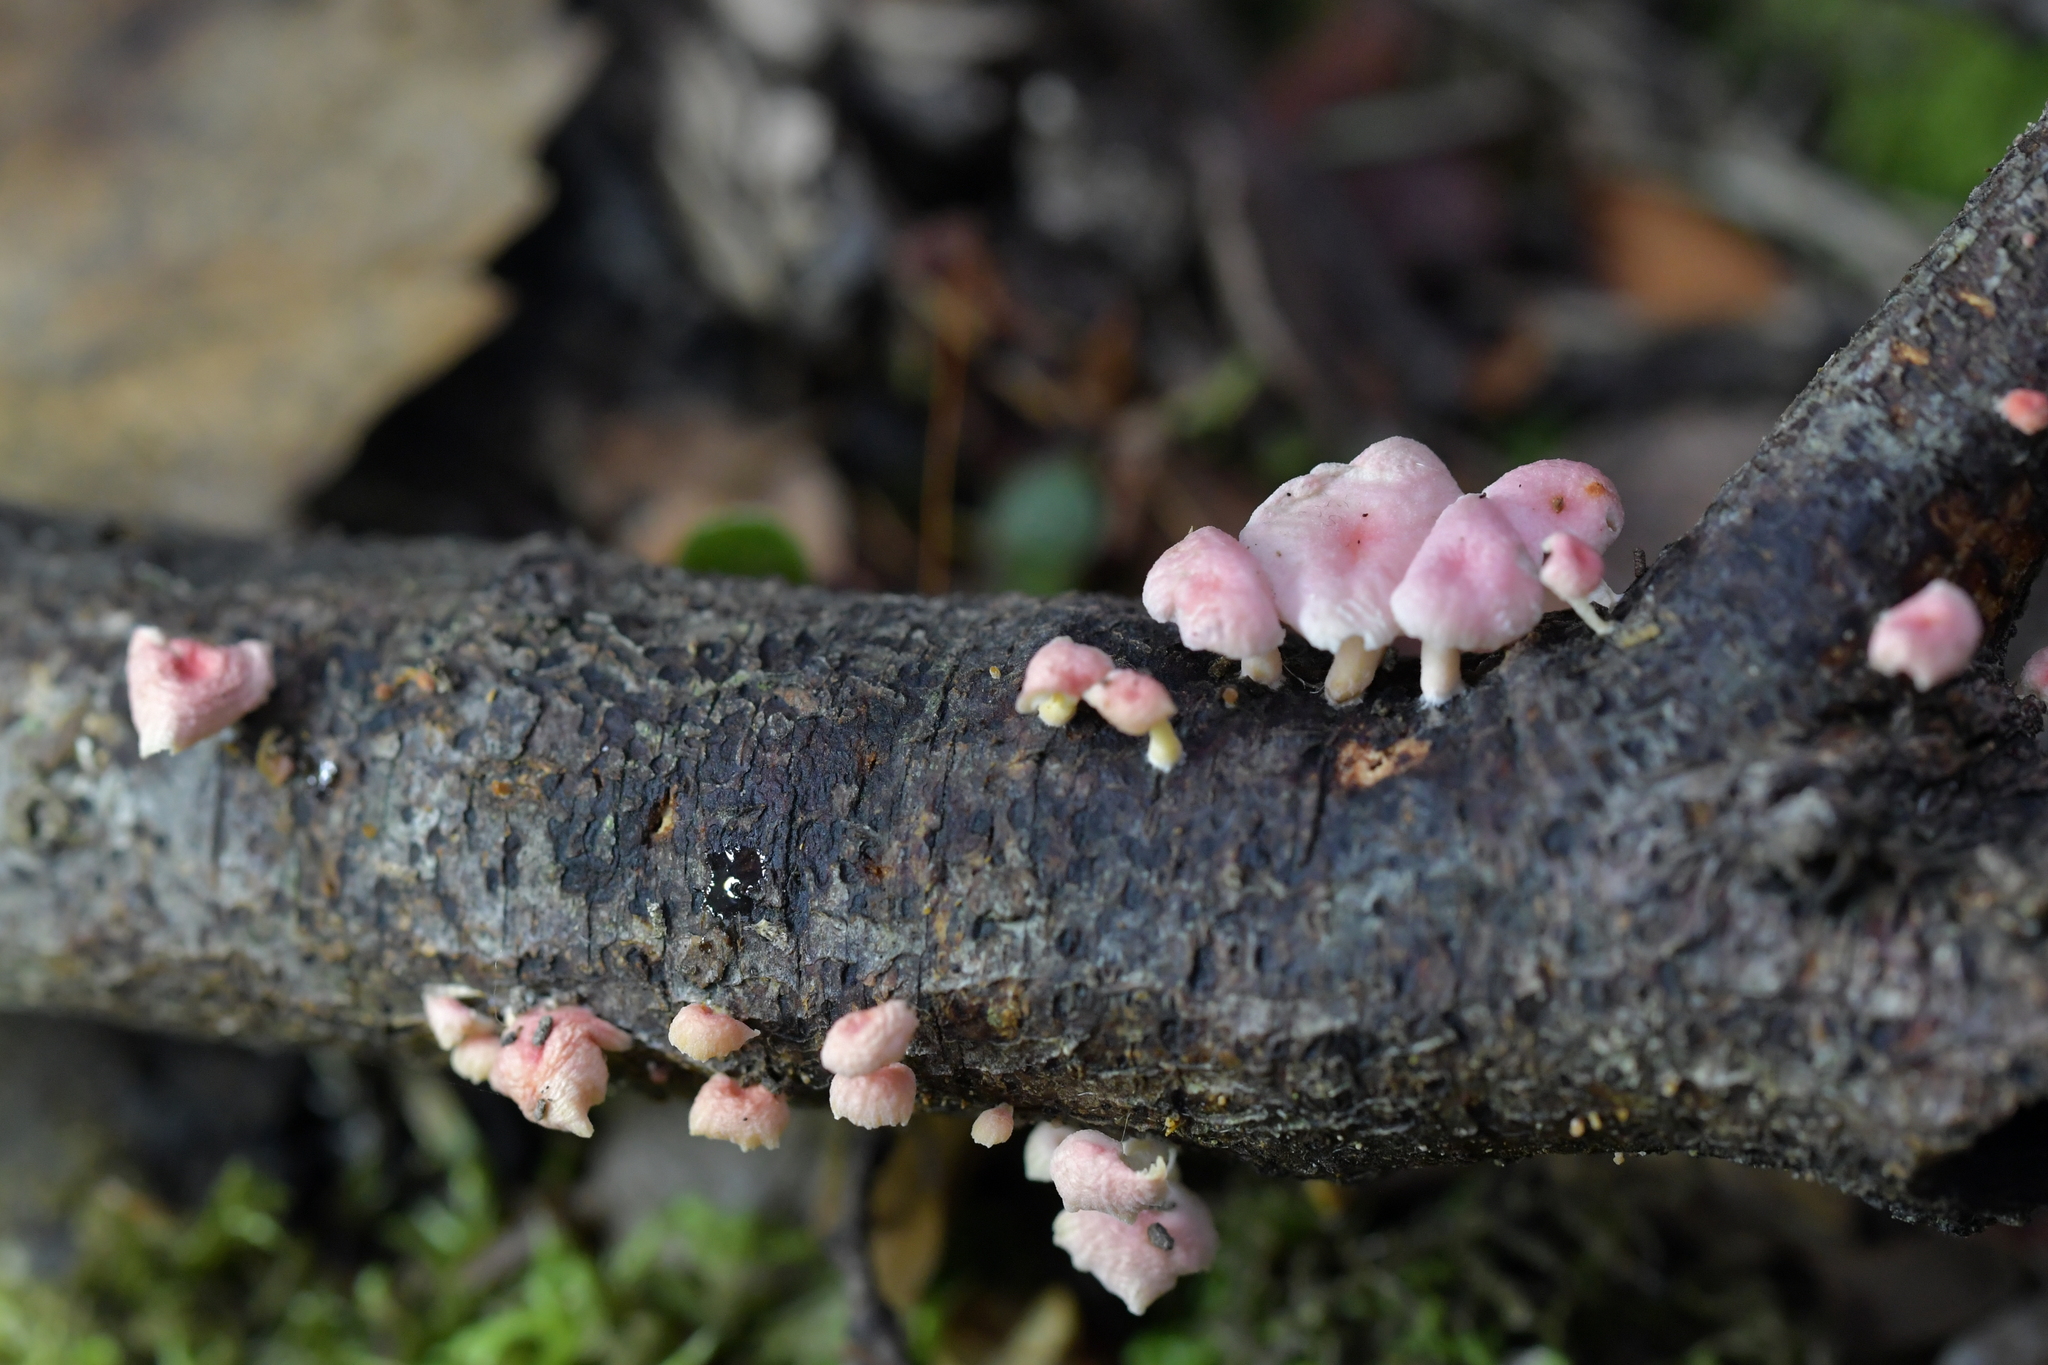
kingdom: Fungi
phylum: Basidiomycota
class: Agaricomycetes
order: Agaricales
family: Mycenaceae
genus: Mycena
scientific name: Mycena roseoflava
